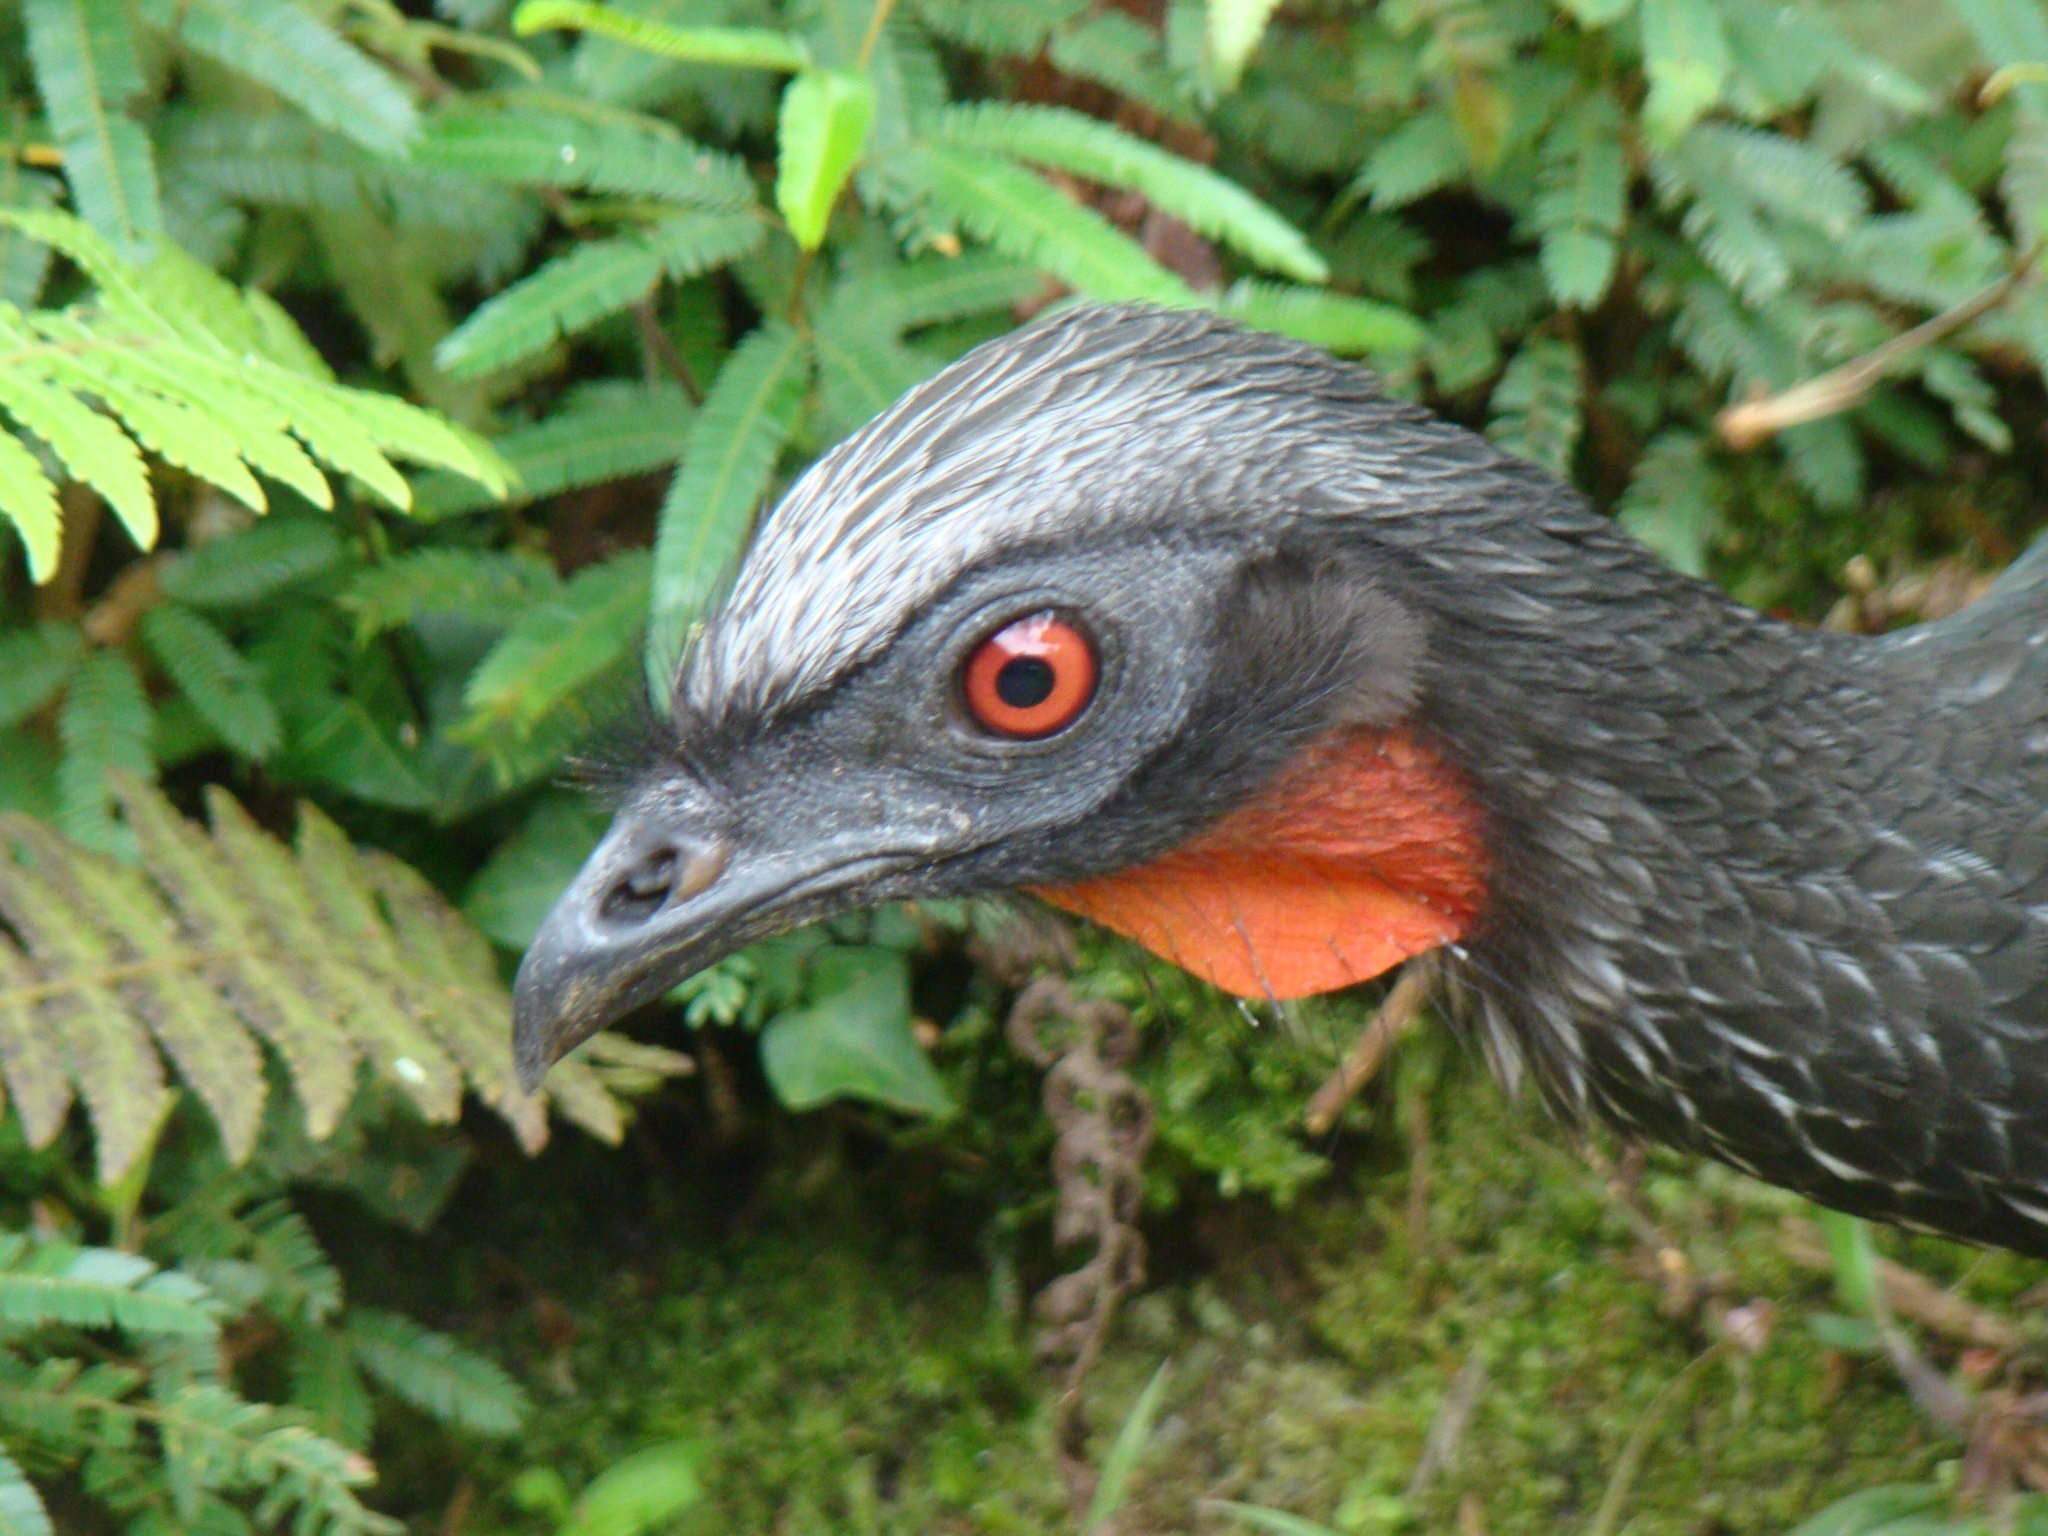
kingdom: Animalia
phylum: Chordata
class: Aves
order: Galliformes
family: Cracidae
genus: Penelope
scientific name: Penelope obscura
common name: Dusky-legged guan
